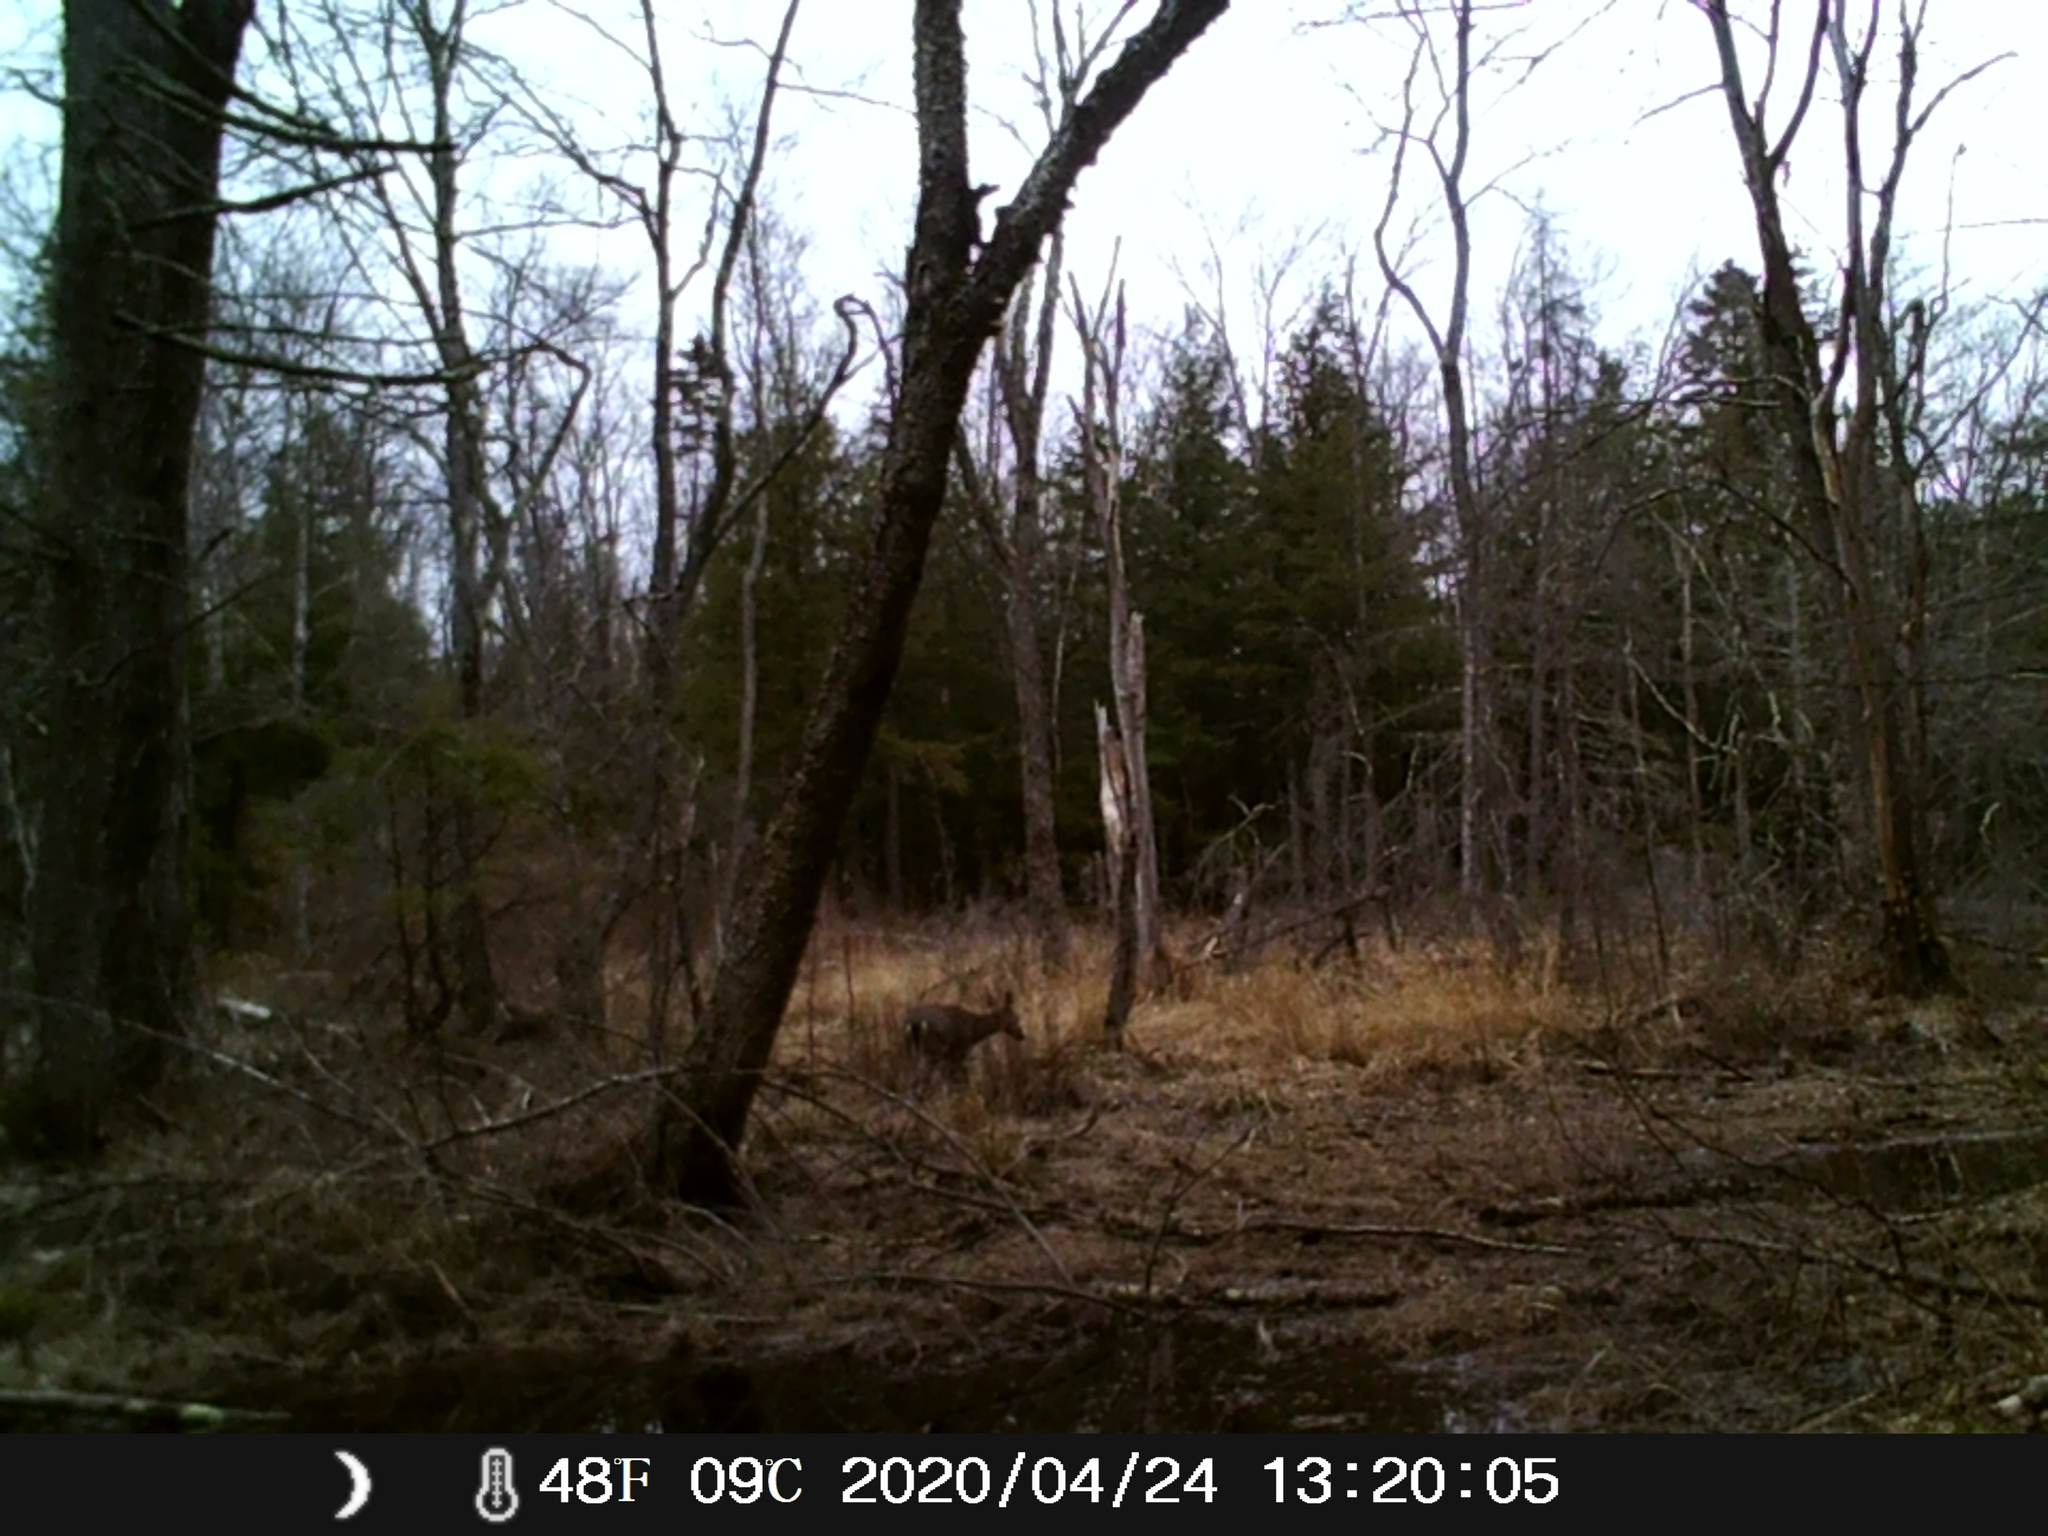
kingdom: Animalia
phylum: Chordata
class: Mammalia
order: Artiodactyla
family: Cervidae
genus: Odocoileus
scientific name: Odocoileus virginianus
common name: White-tailed deer
